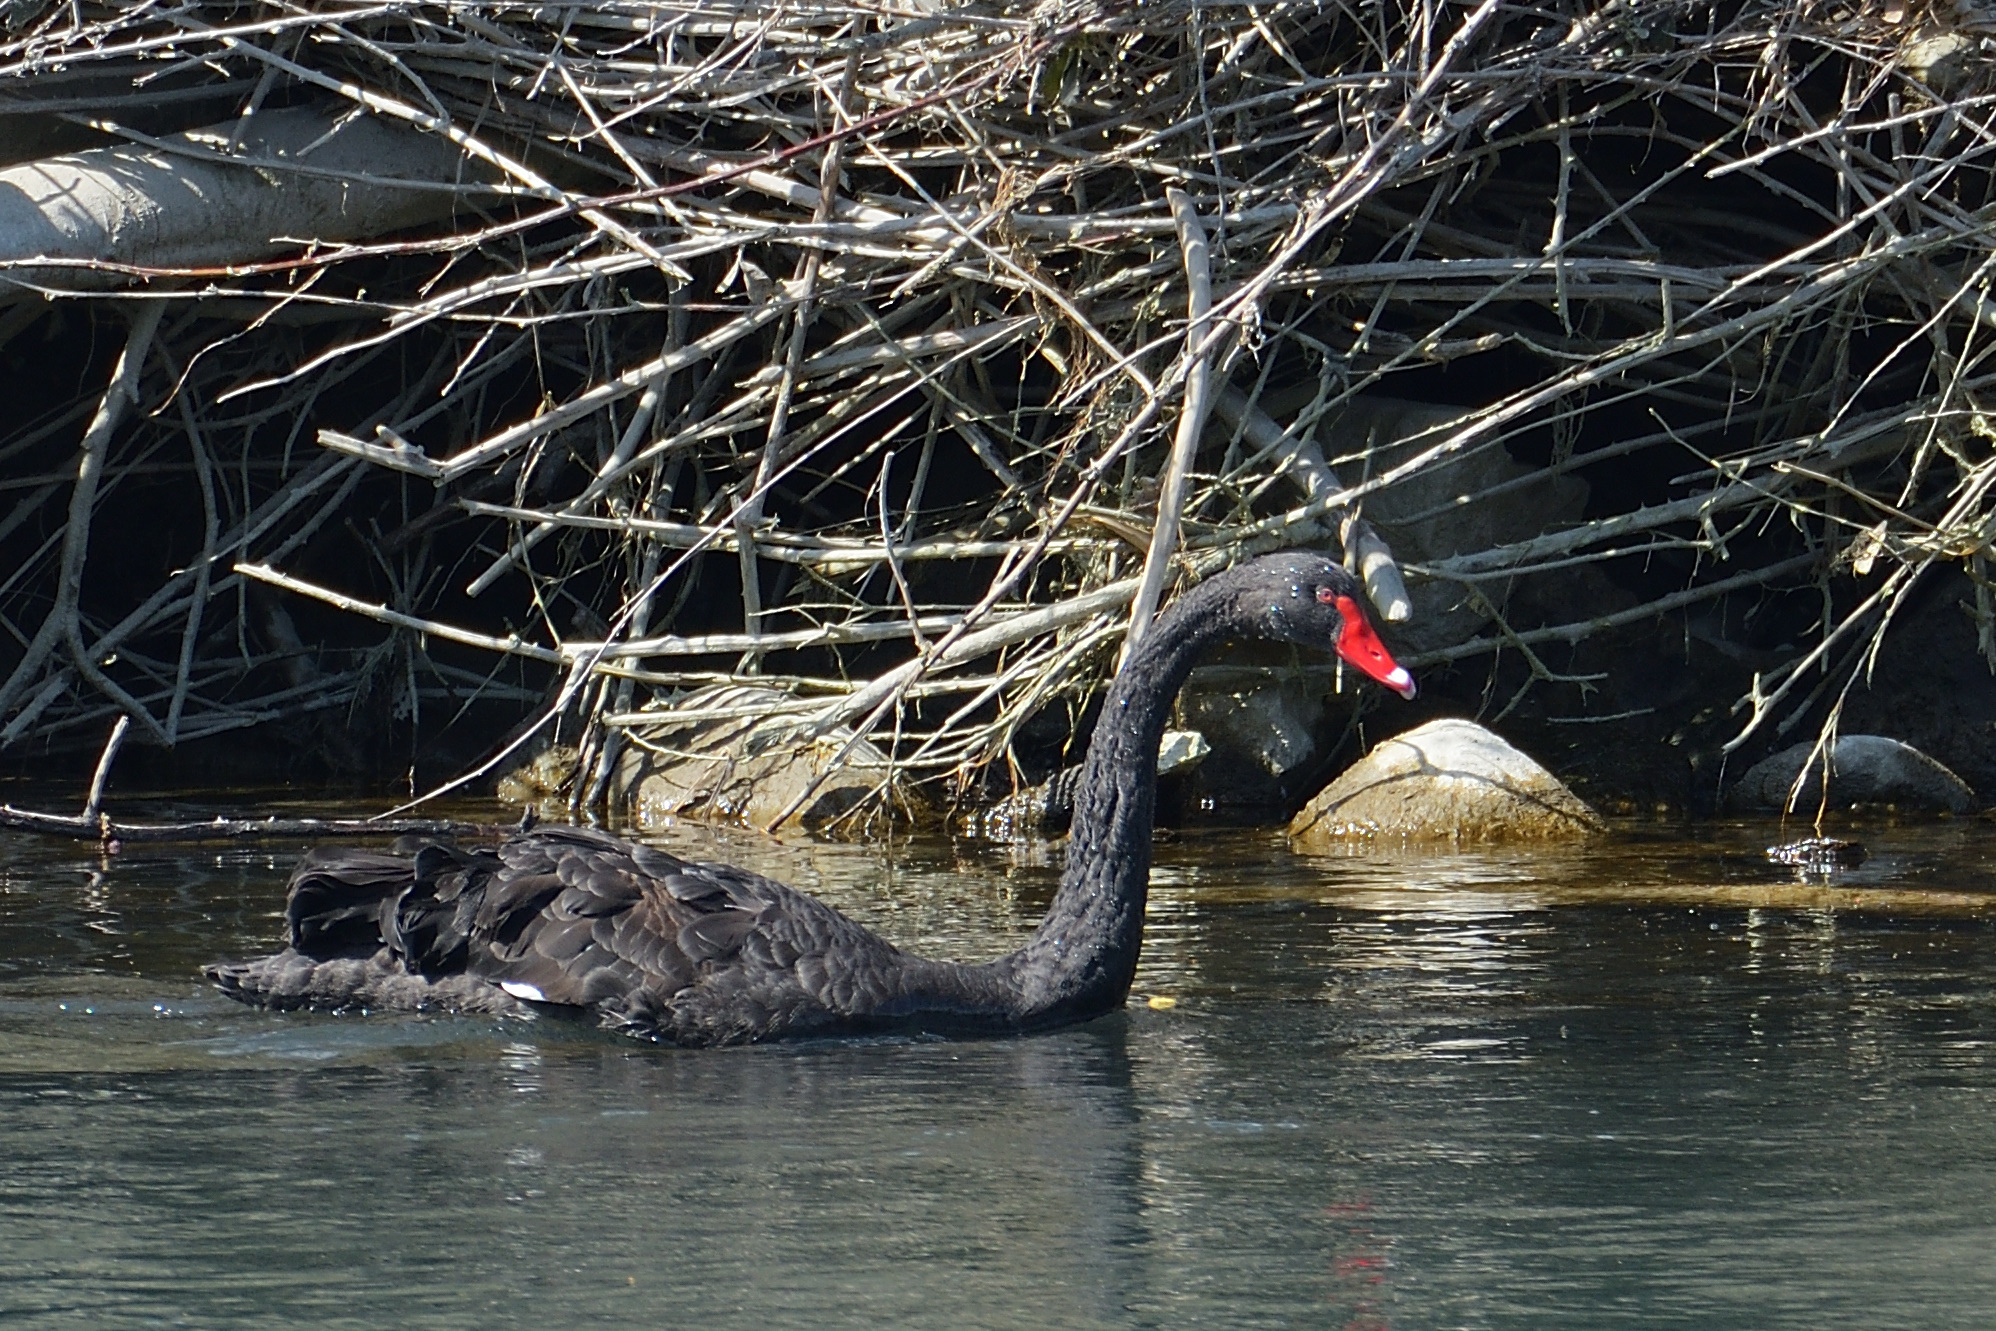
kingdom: Animalia
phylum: Chordata
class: Aves
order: Anseriformes
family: Anatidae
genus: Cygnus
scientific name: Cygnus atratus
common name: Black swan
